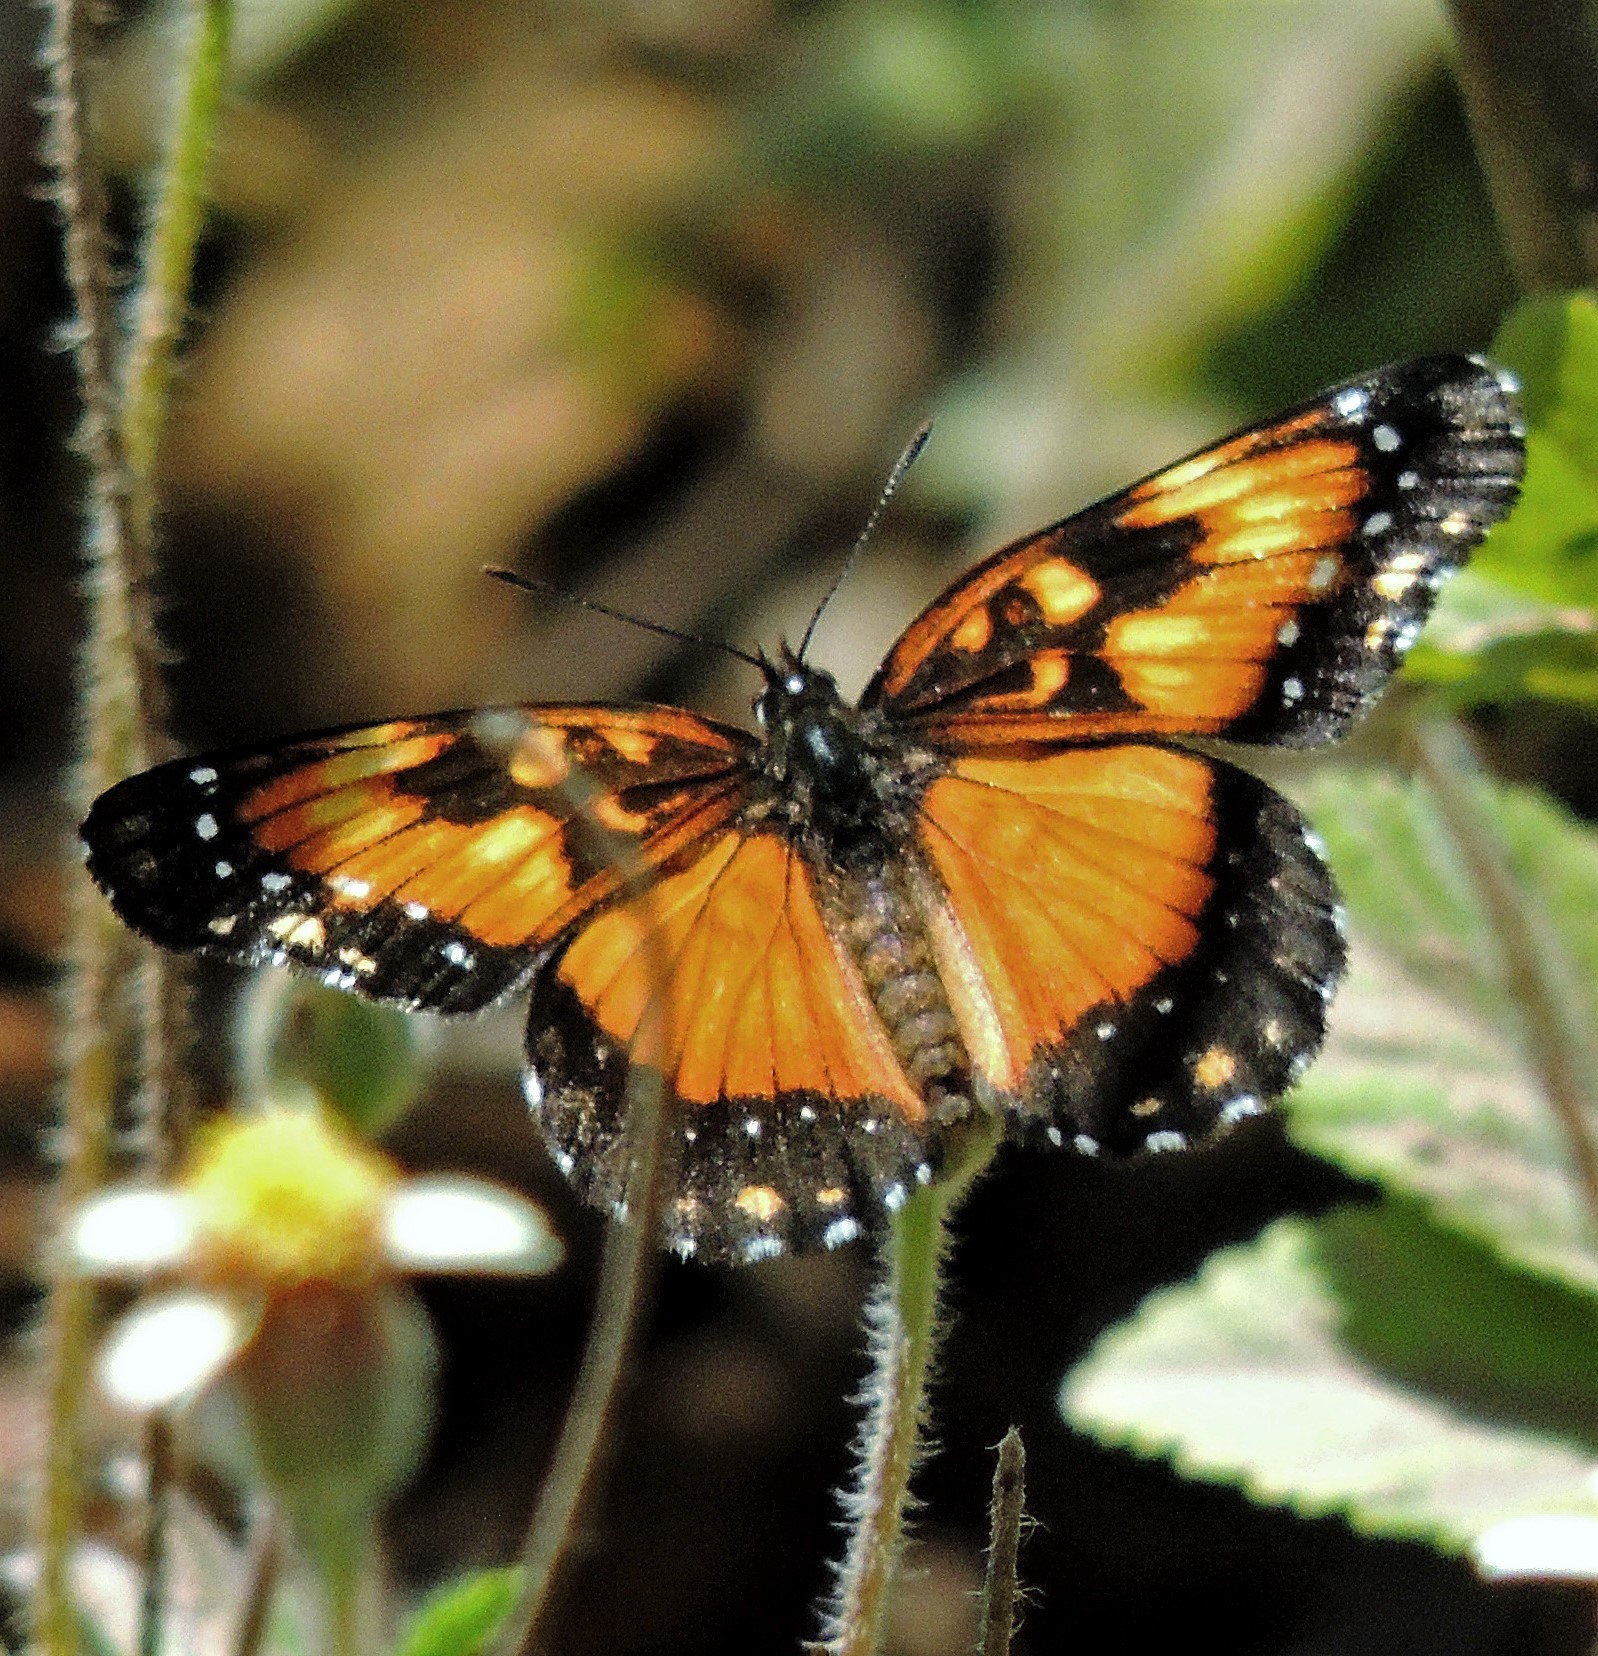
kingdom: Animalia
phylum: Arthropoda
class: Insecta
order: Lepidoptera
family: Nymphalidae
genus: Chlosyne
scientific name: Chlosyne lacinia
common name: Bordered patch
